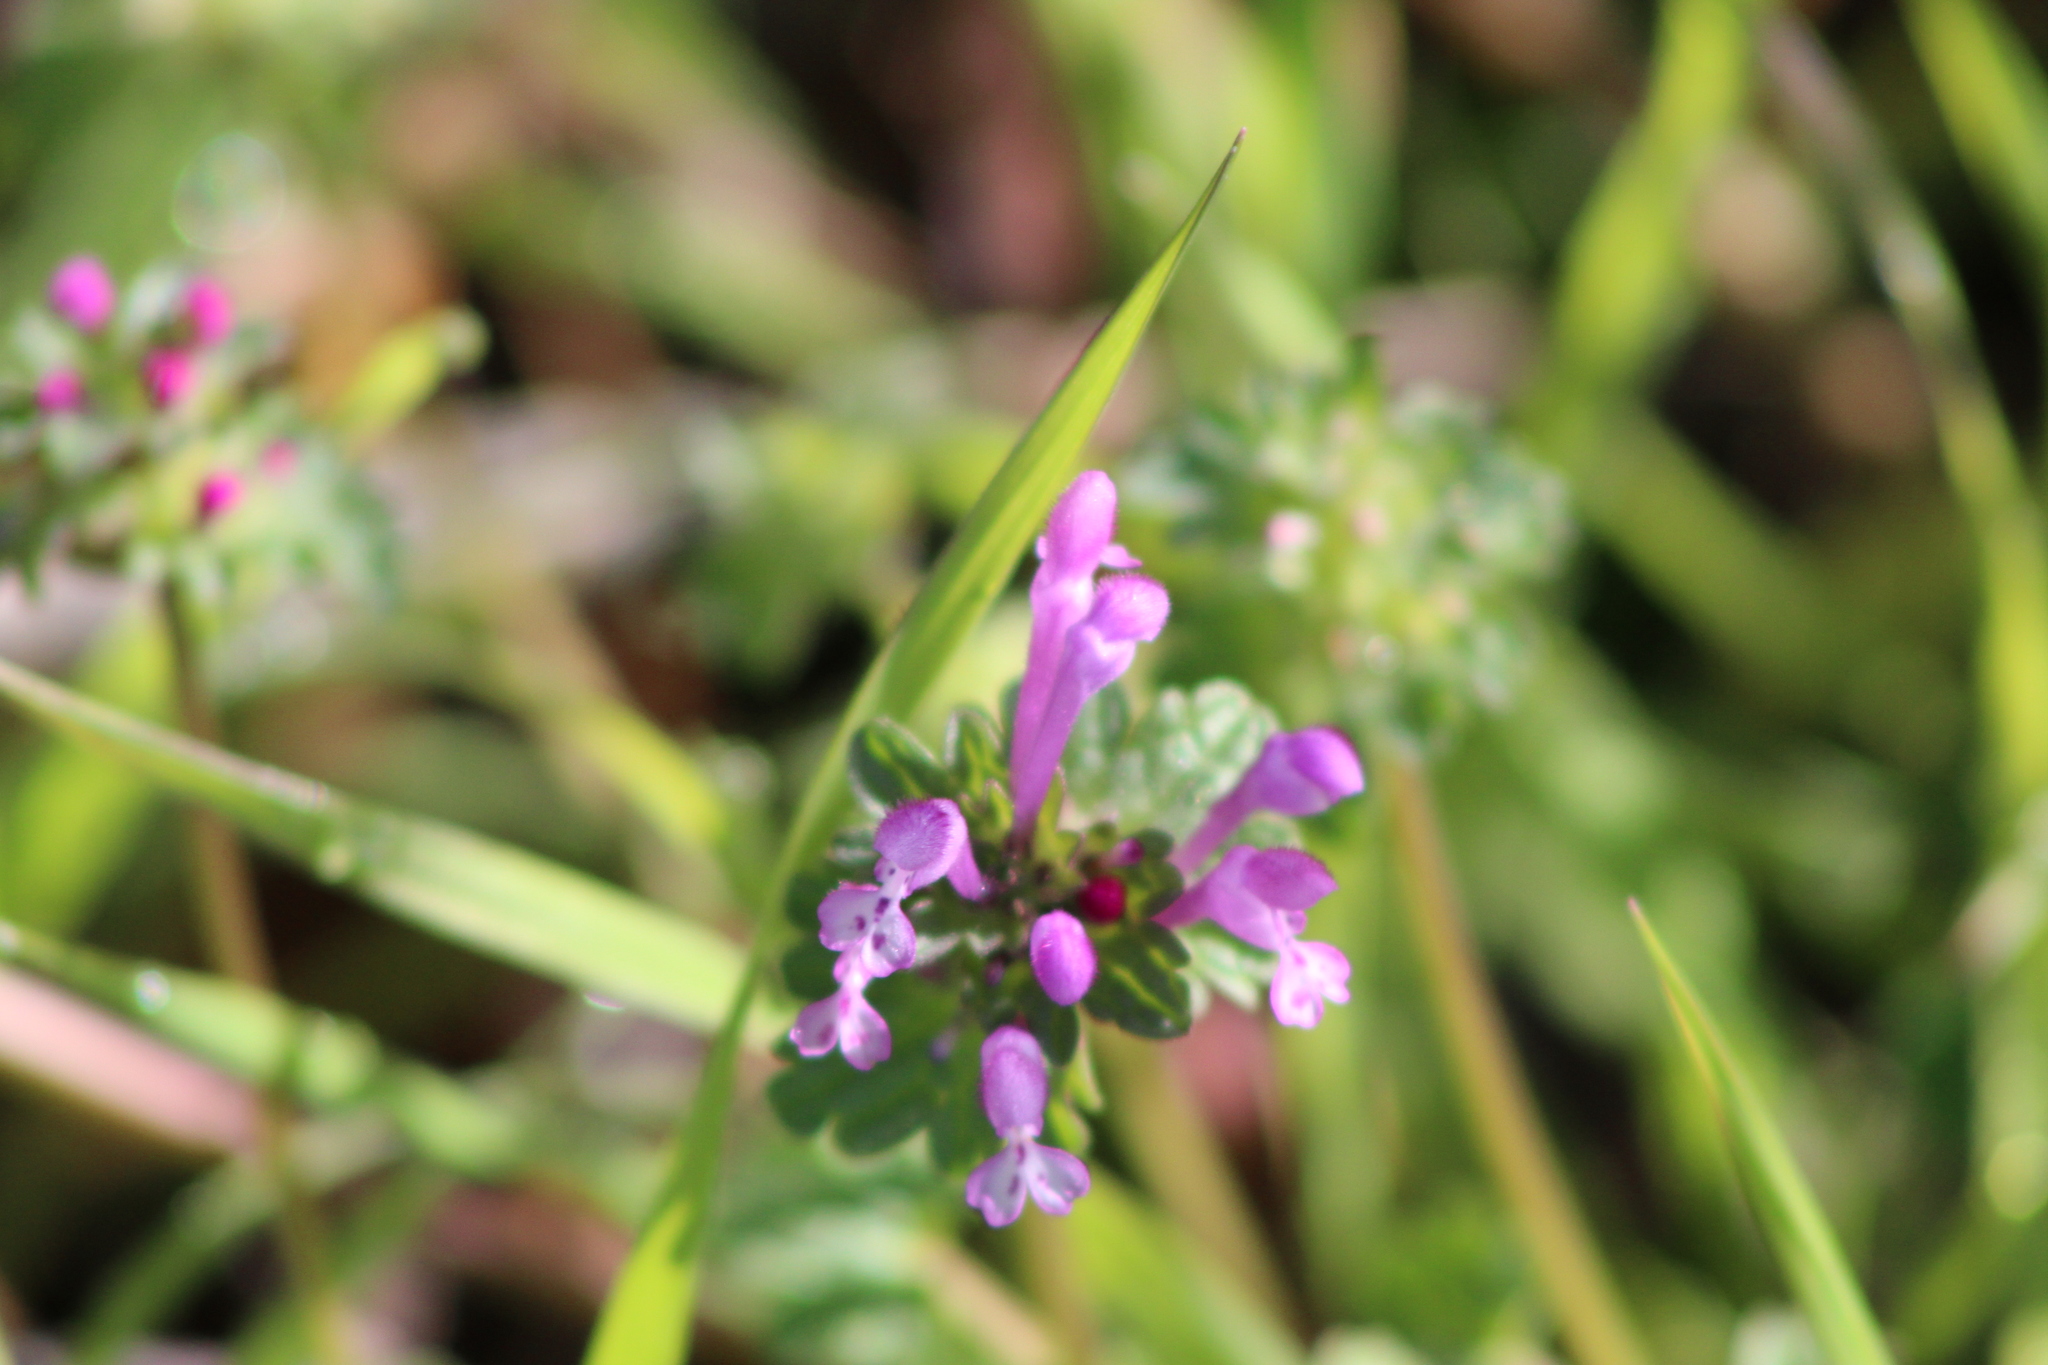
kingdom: Plantae
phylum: Tracheophyta
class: Magnoliopsida
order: Lamiales
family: Lamiaceae
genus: Lamium
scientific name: Lamium amplexicaule
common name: Henbit dead-nettle
